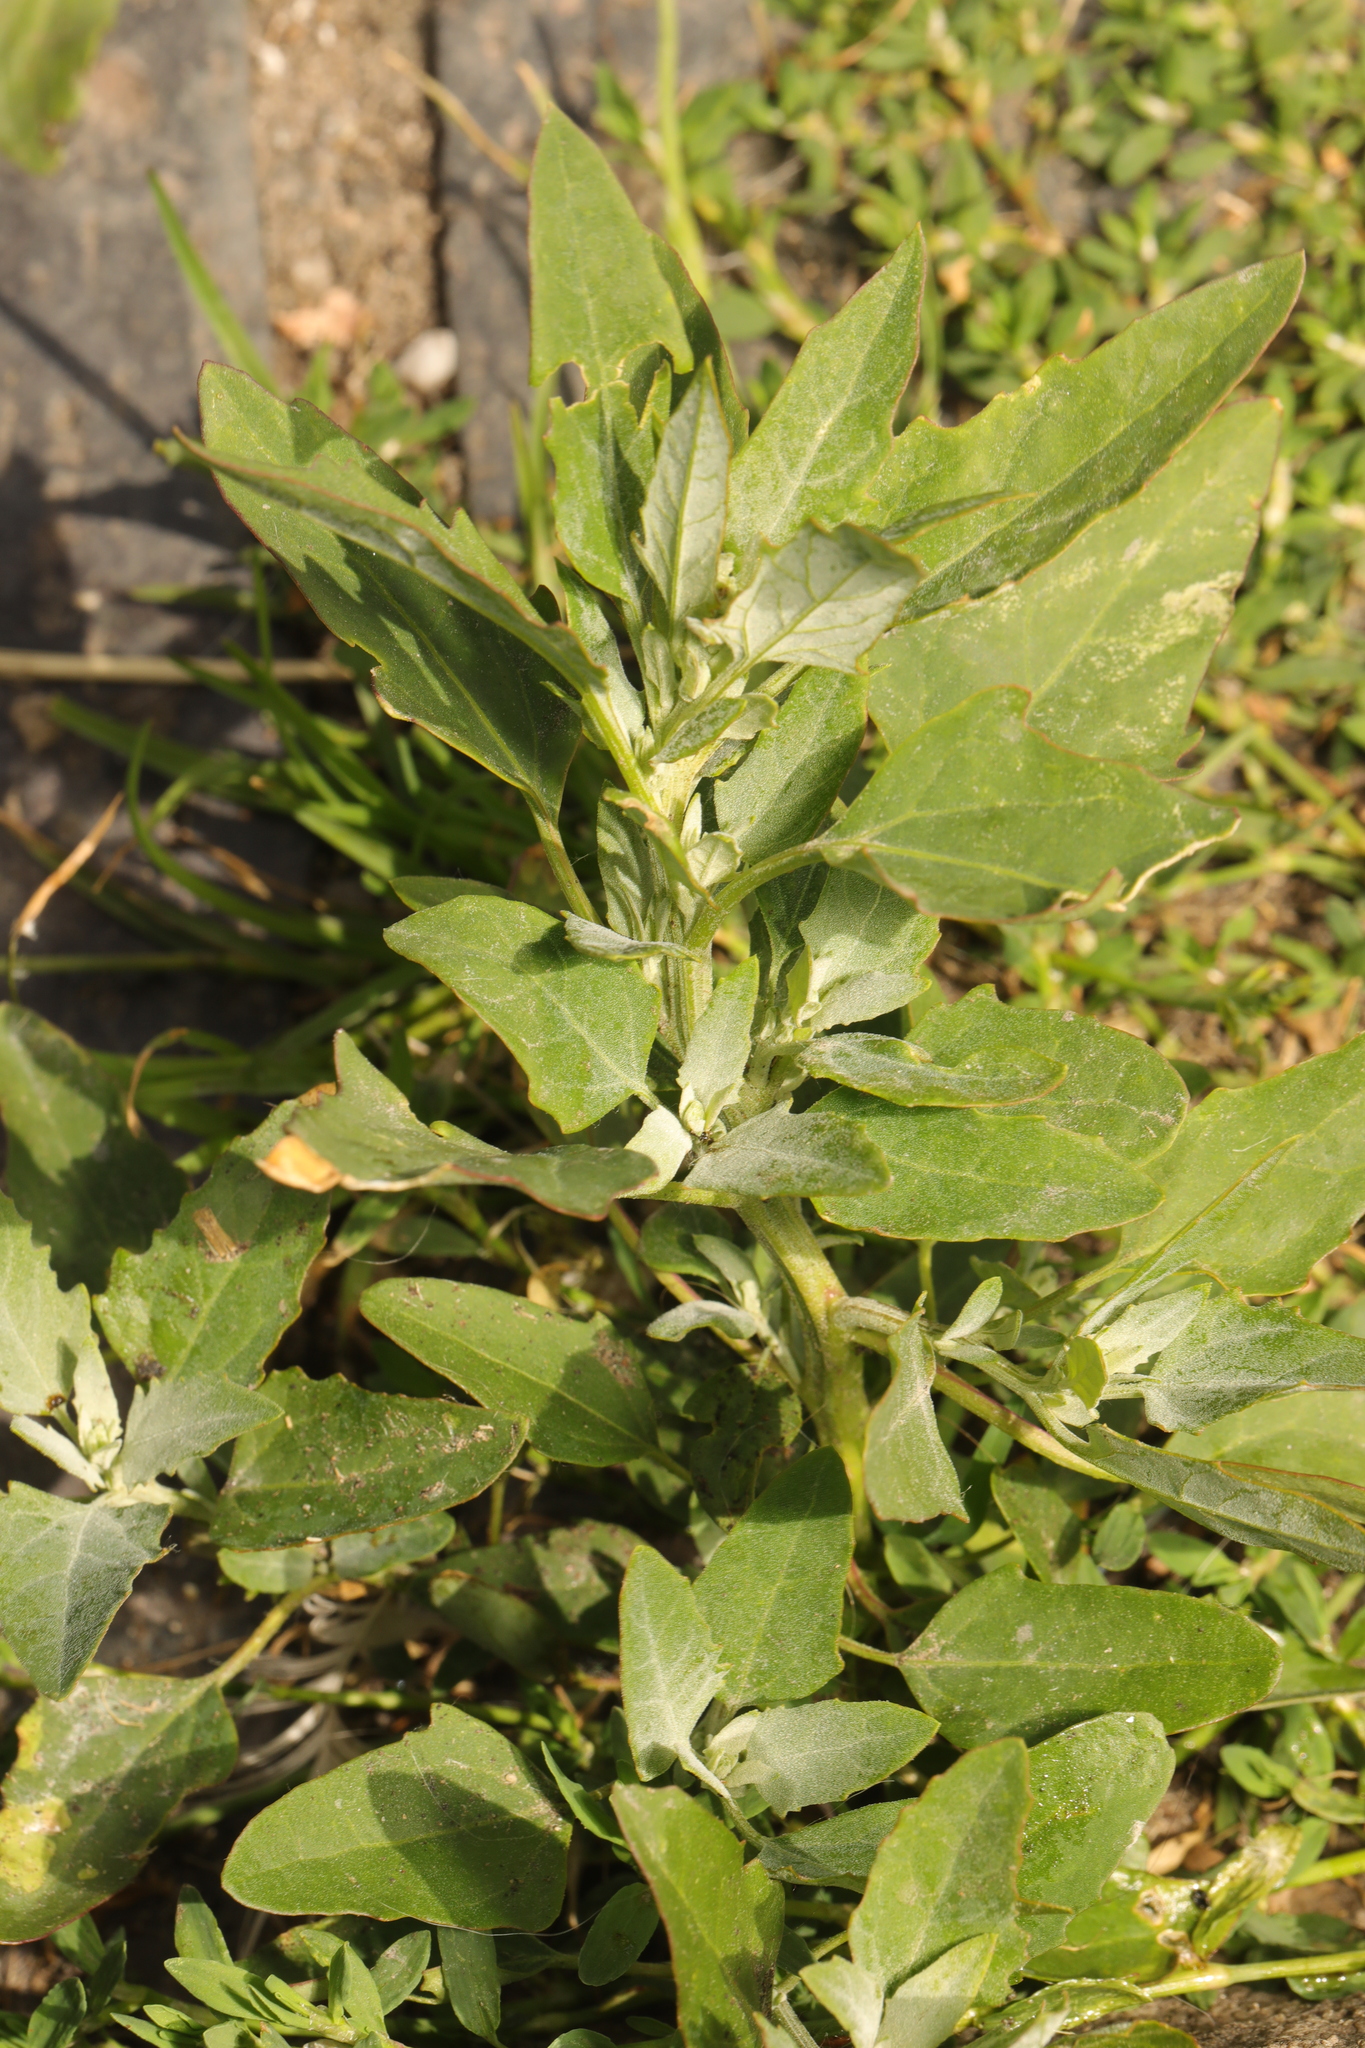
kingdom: Plantae
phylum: Tracheophyta
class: Magnoliopsida
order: Caryophyllales
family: Amaranthaceae
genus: Atriplex
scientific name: Atriplex prostrata
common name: Spear-leaved orache
